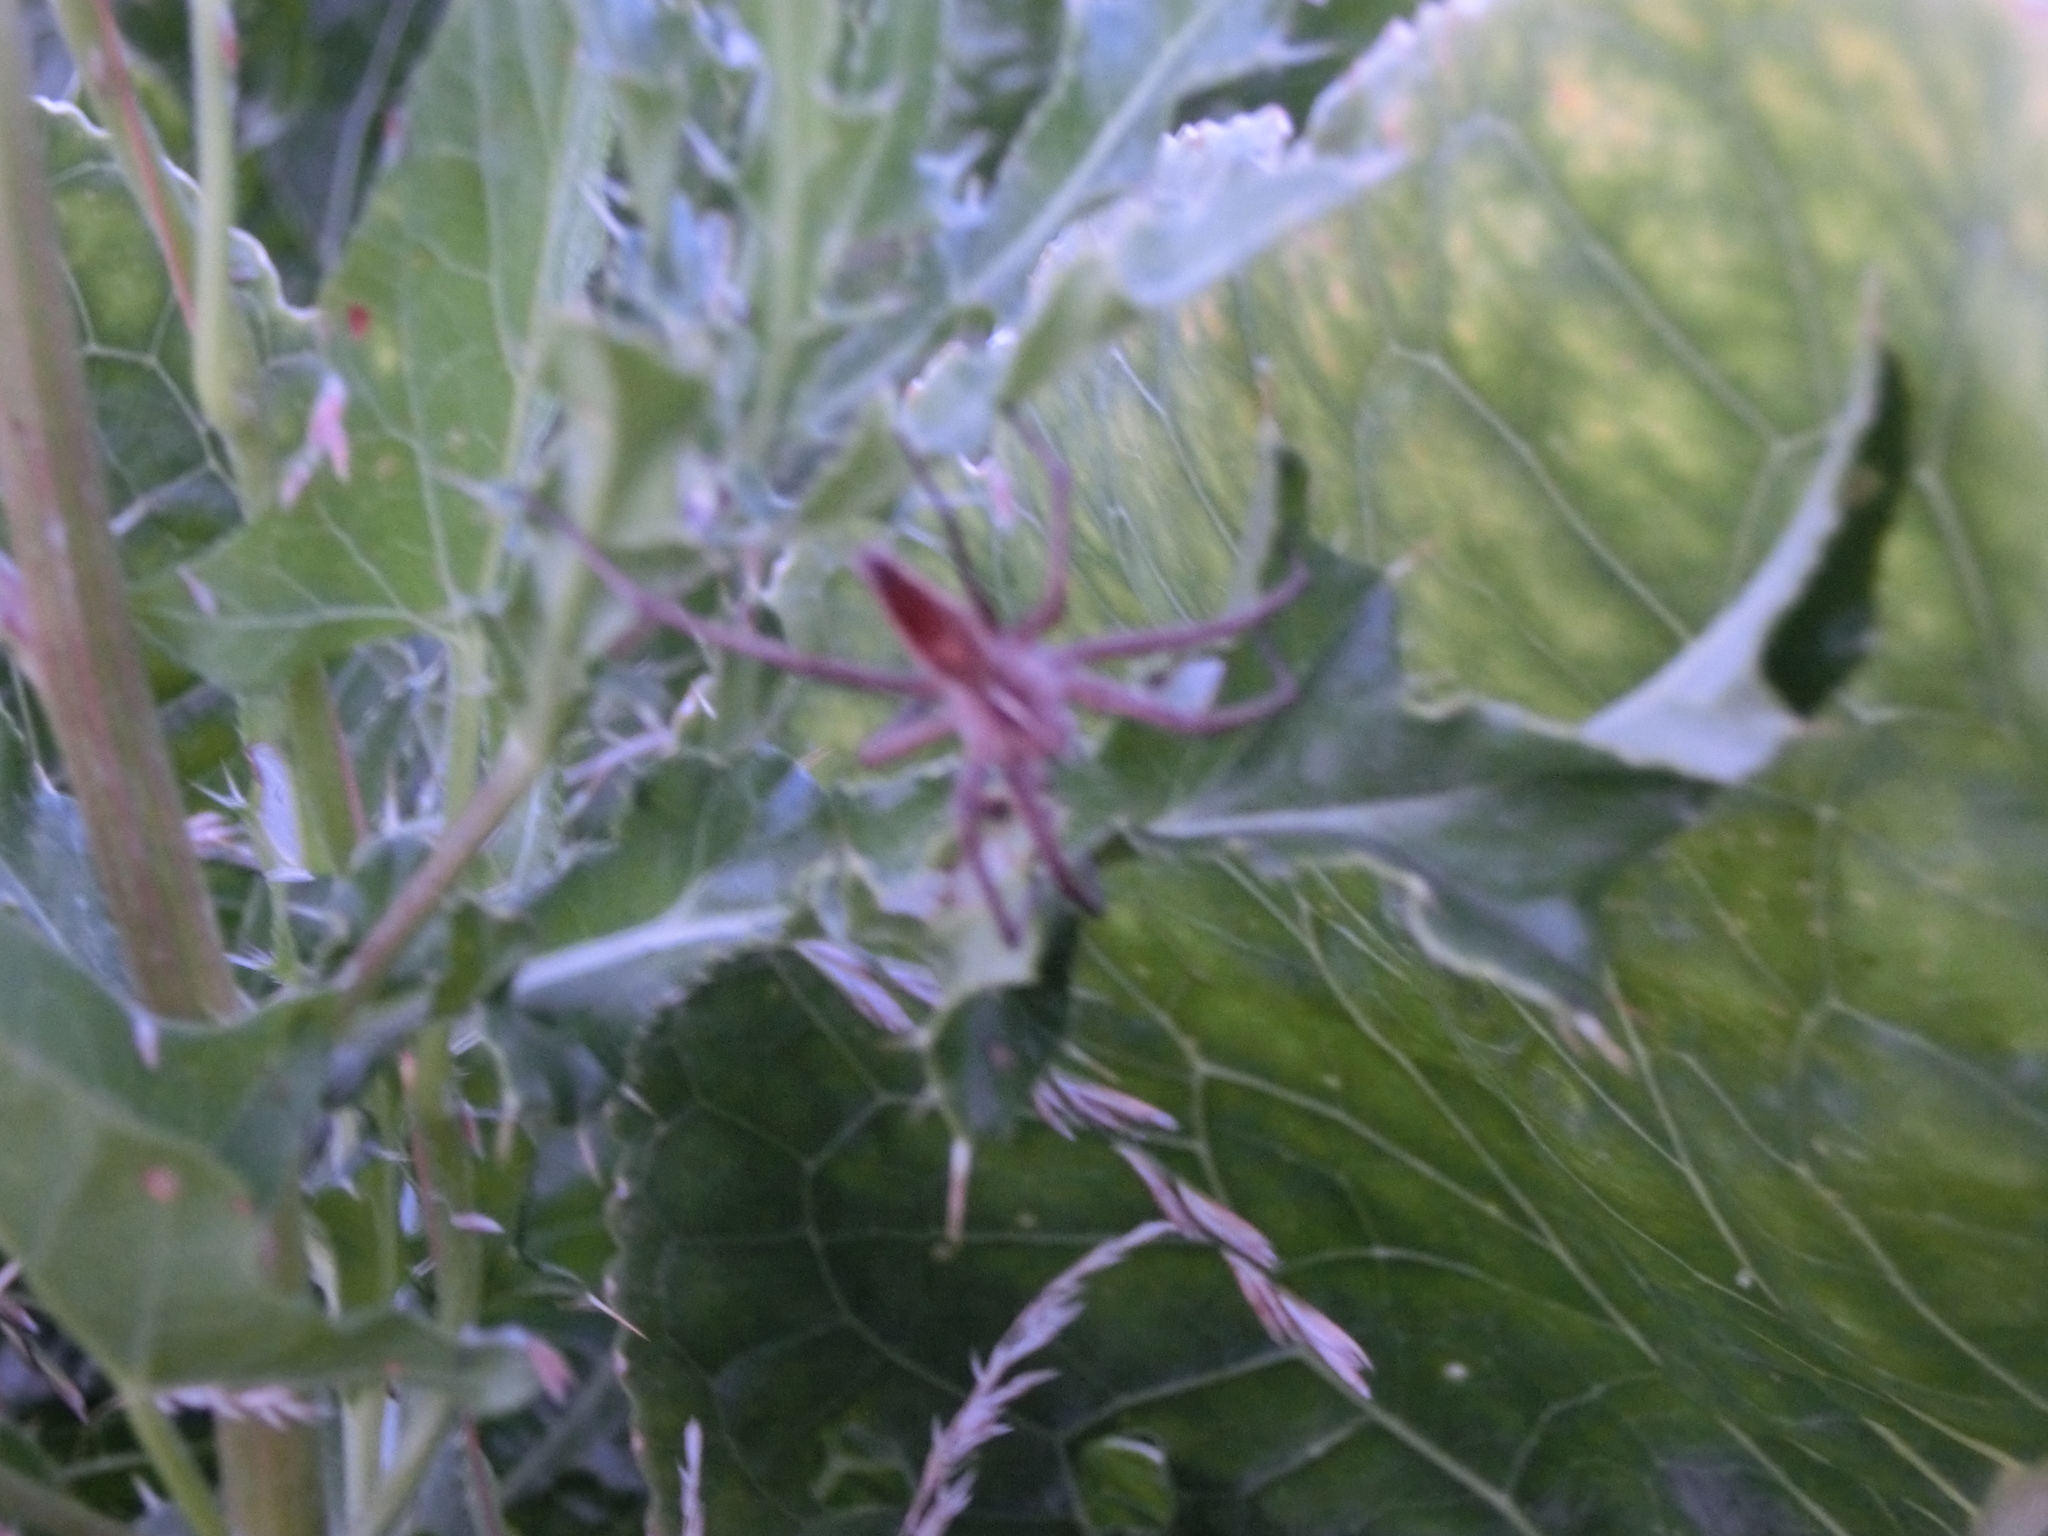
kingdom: Animalia
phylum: Arthropoda
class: Arachnida
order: Araneae
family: Pisauridae
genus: Pisaura
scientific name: Pisaura mirabilis
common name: Tent spider
